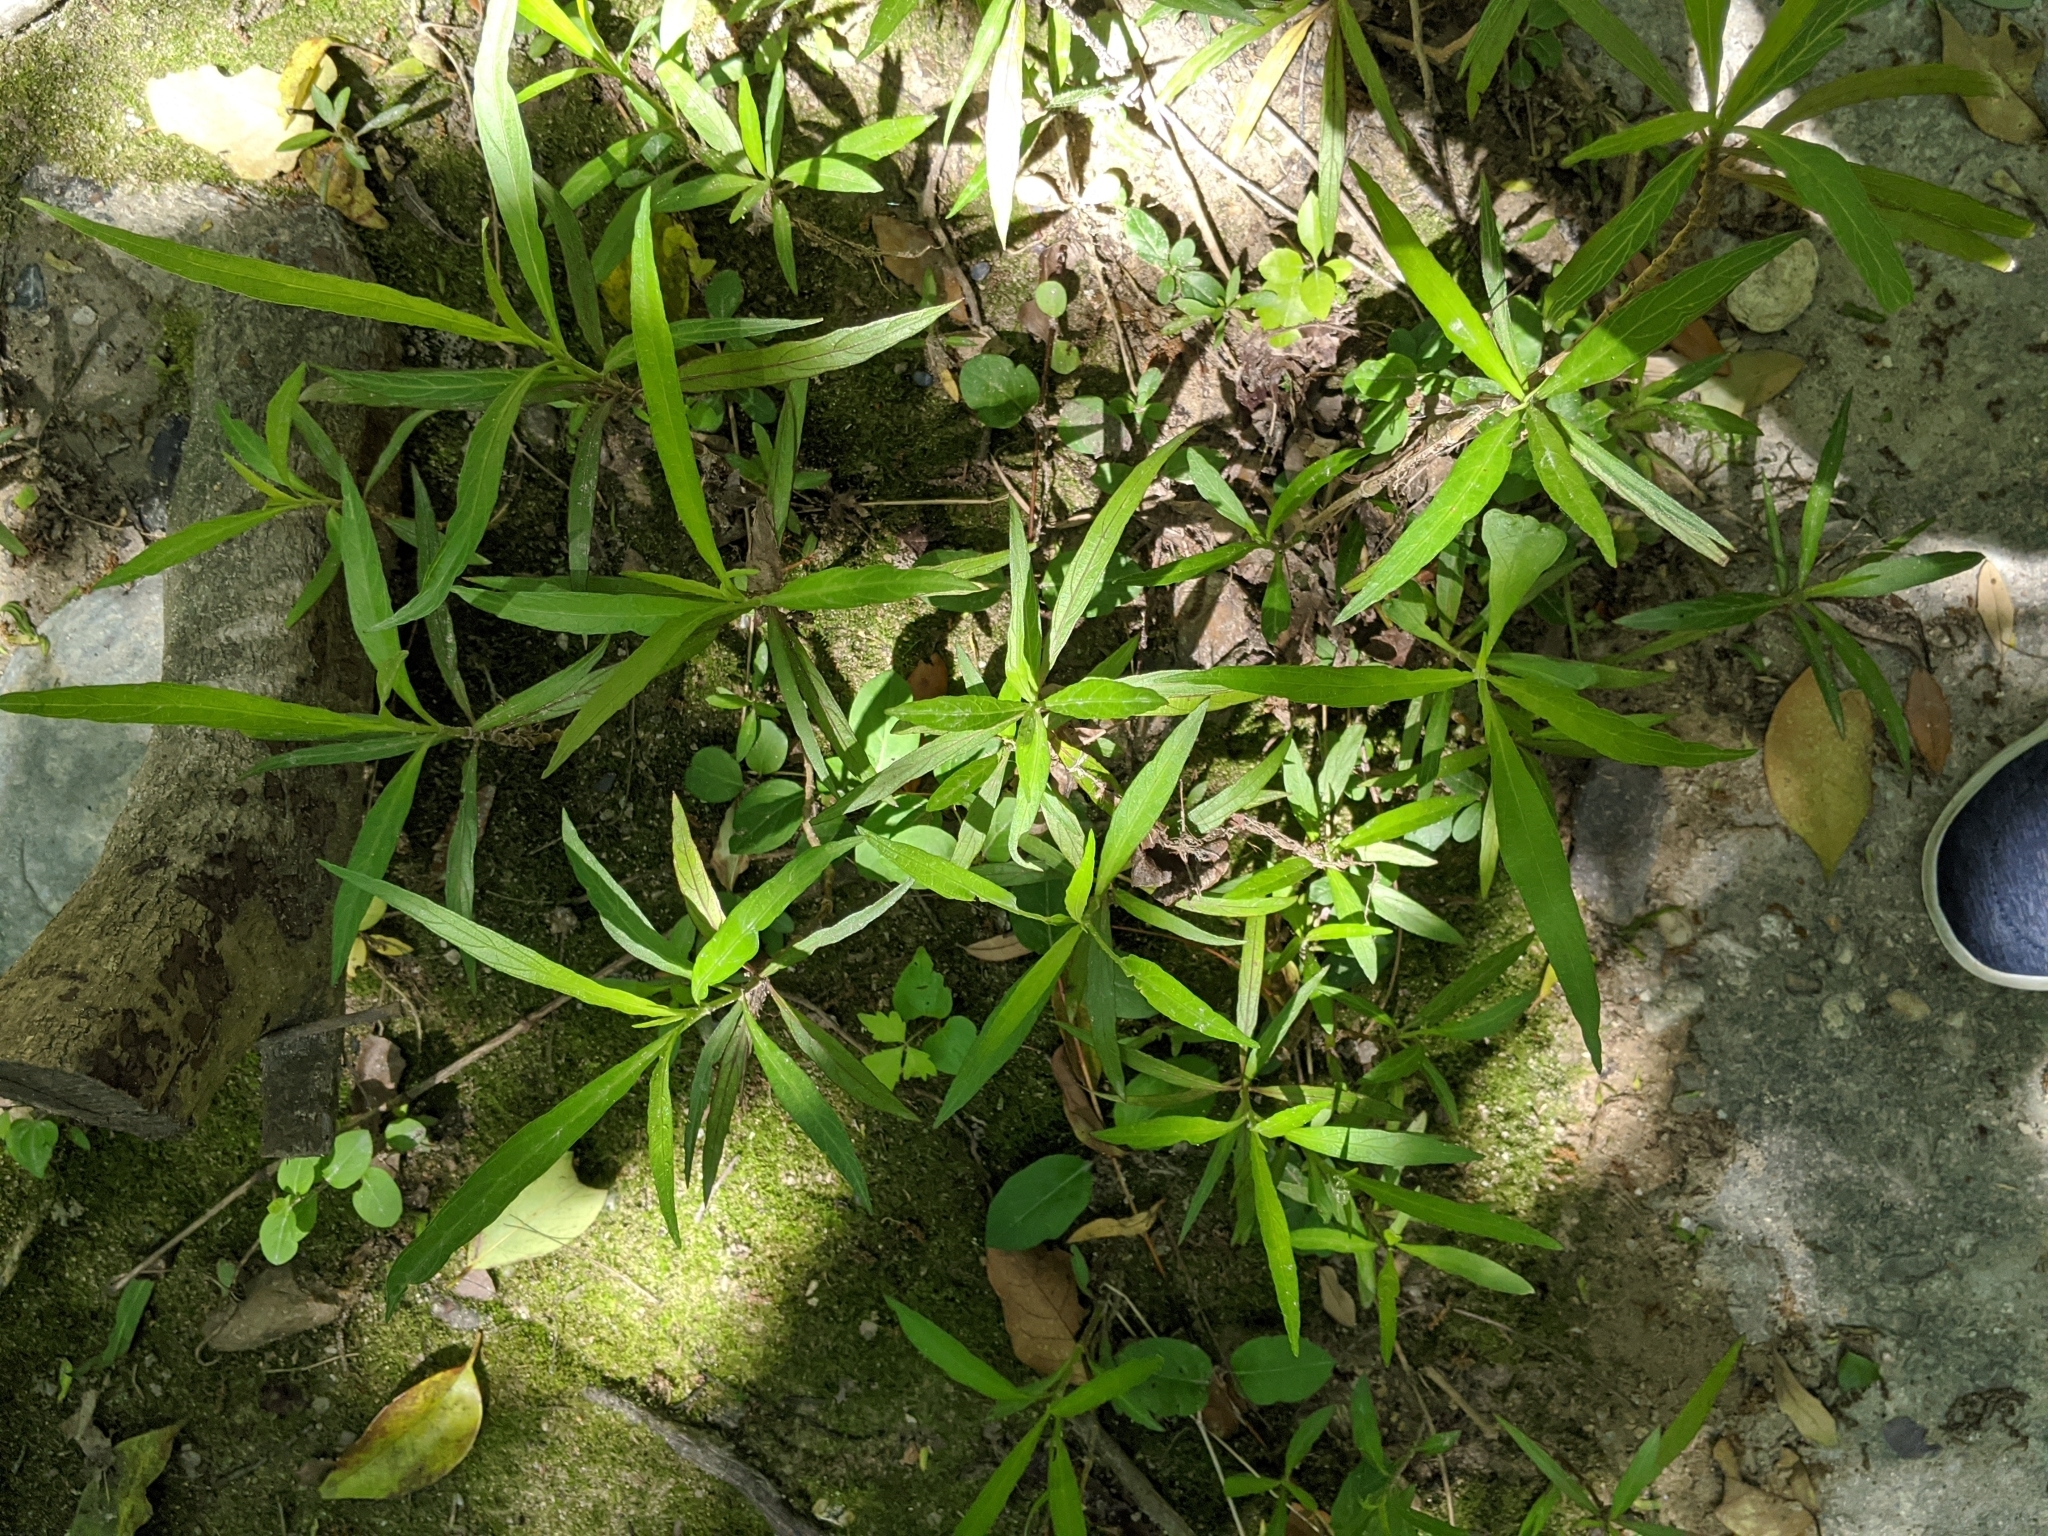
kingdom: Plantae
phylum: Tracheophyta
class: Magnoliopsida
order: Lamiales
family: Acanthaceae
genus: Ruellia
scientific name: Ruellia simplex
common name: Softseed wild petunia
